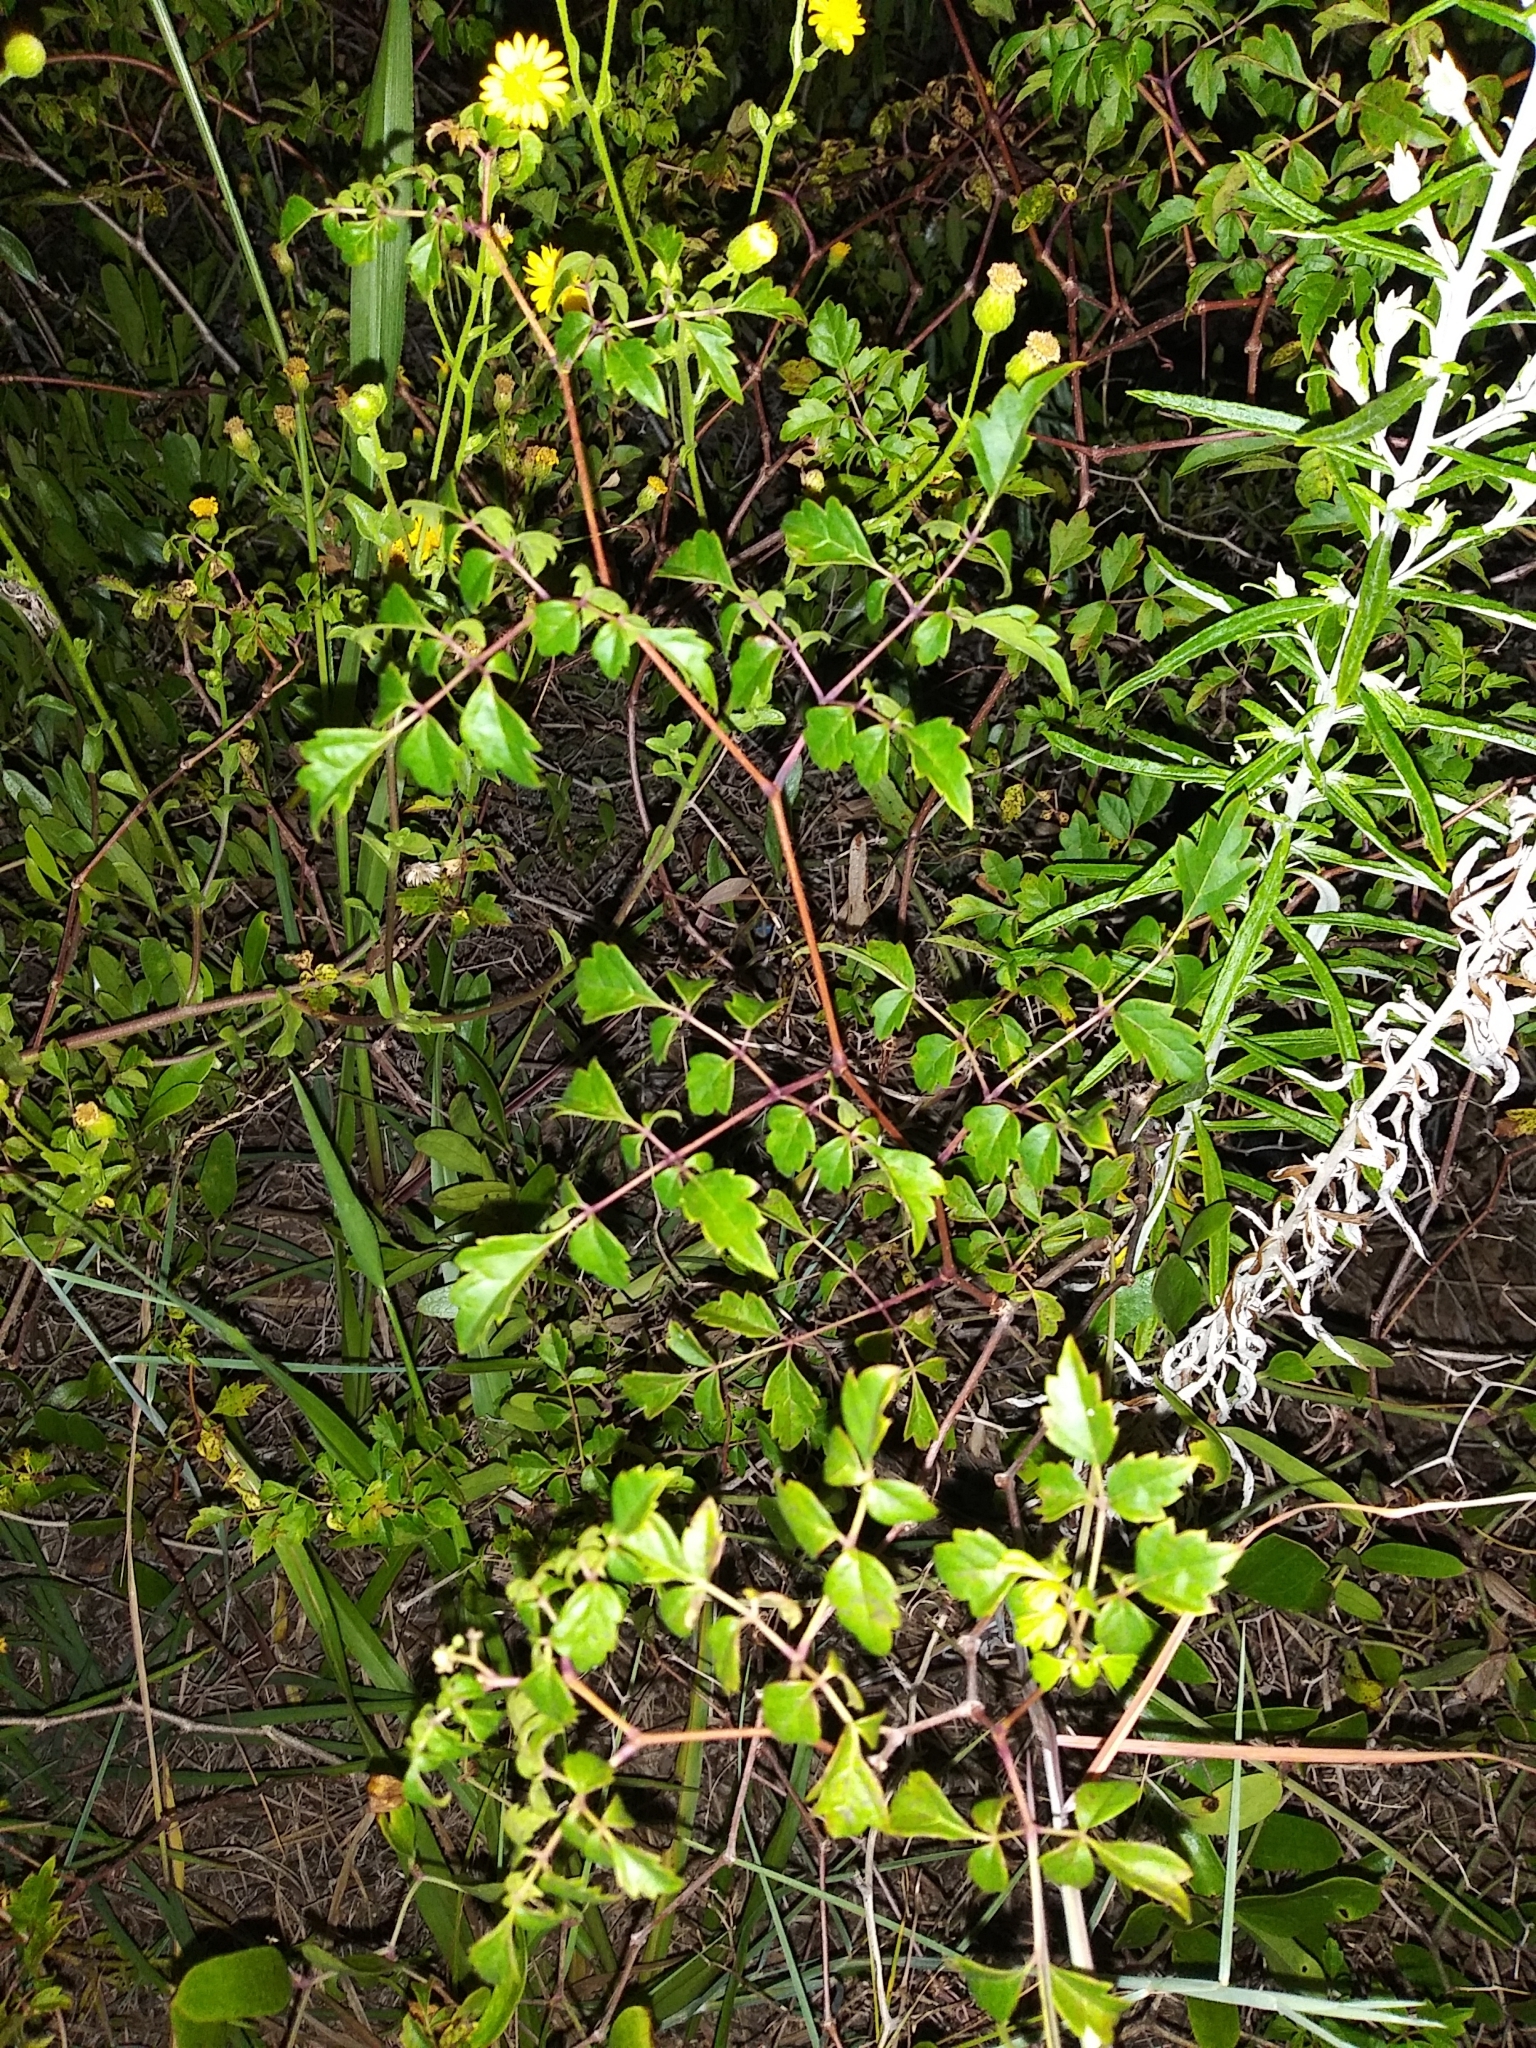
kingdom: Plantae
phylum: Tracheophyta
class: Magnoliopsida
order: Vitales
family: Vitaceae
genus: Nekemias
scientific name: Nekemias arborea
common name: Peppervine
